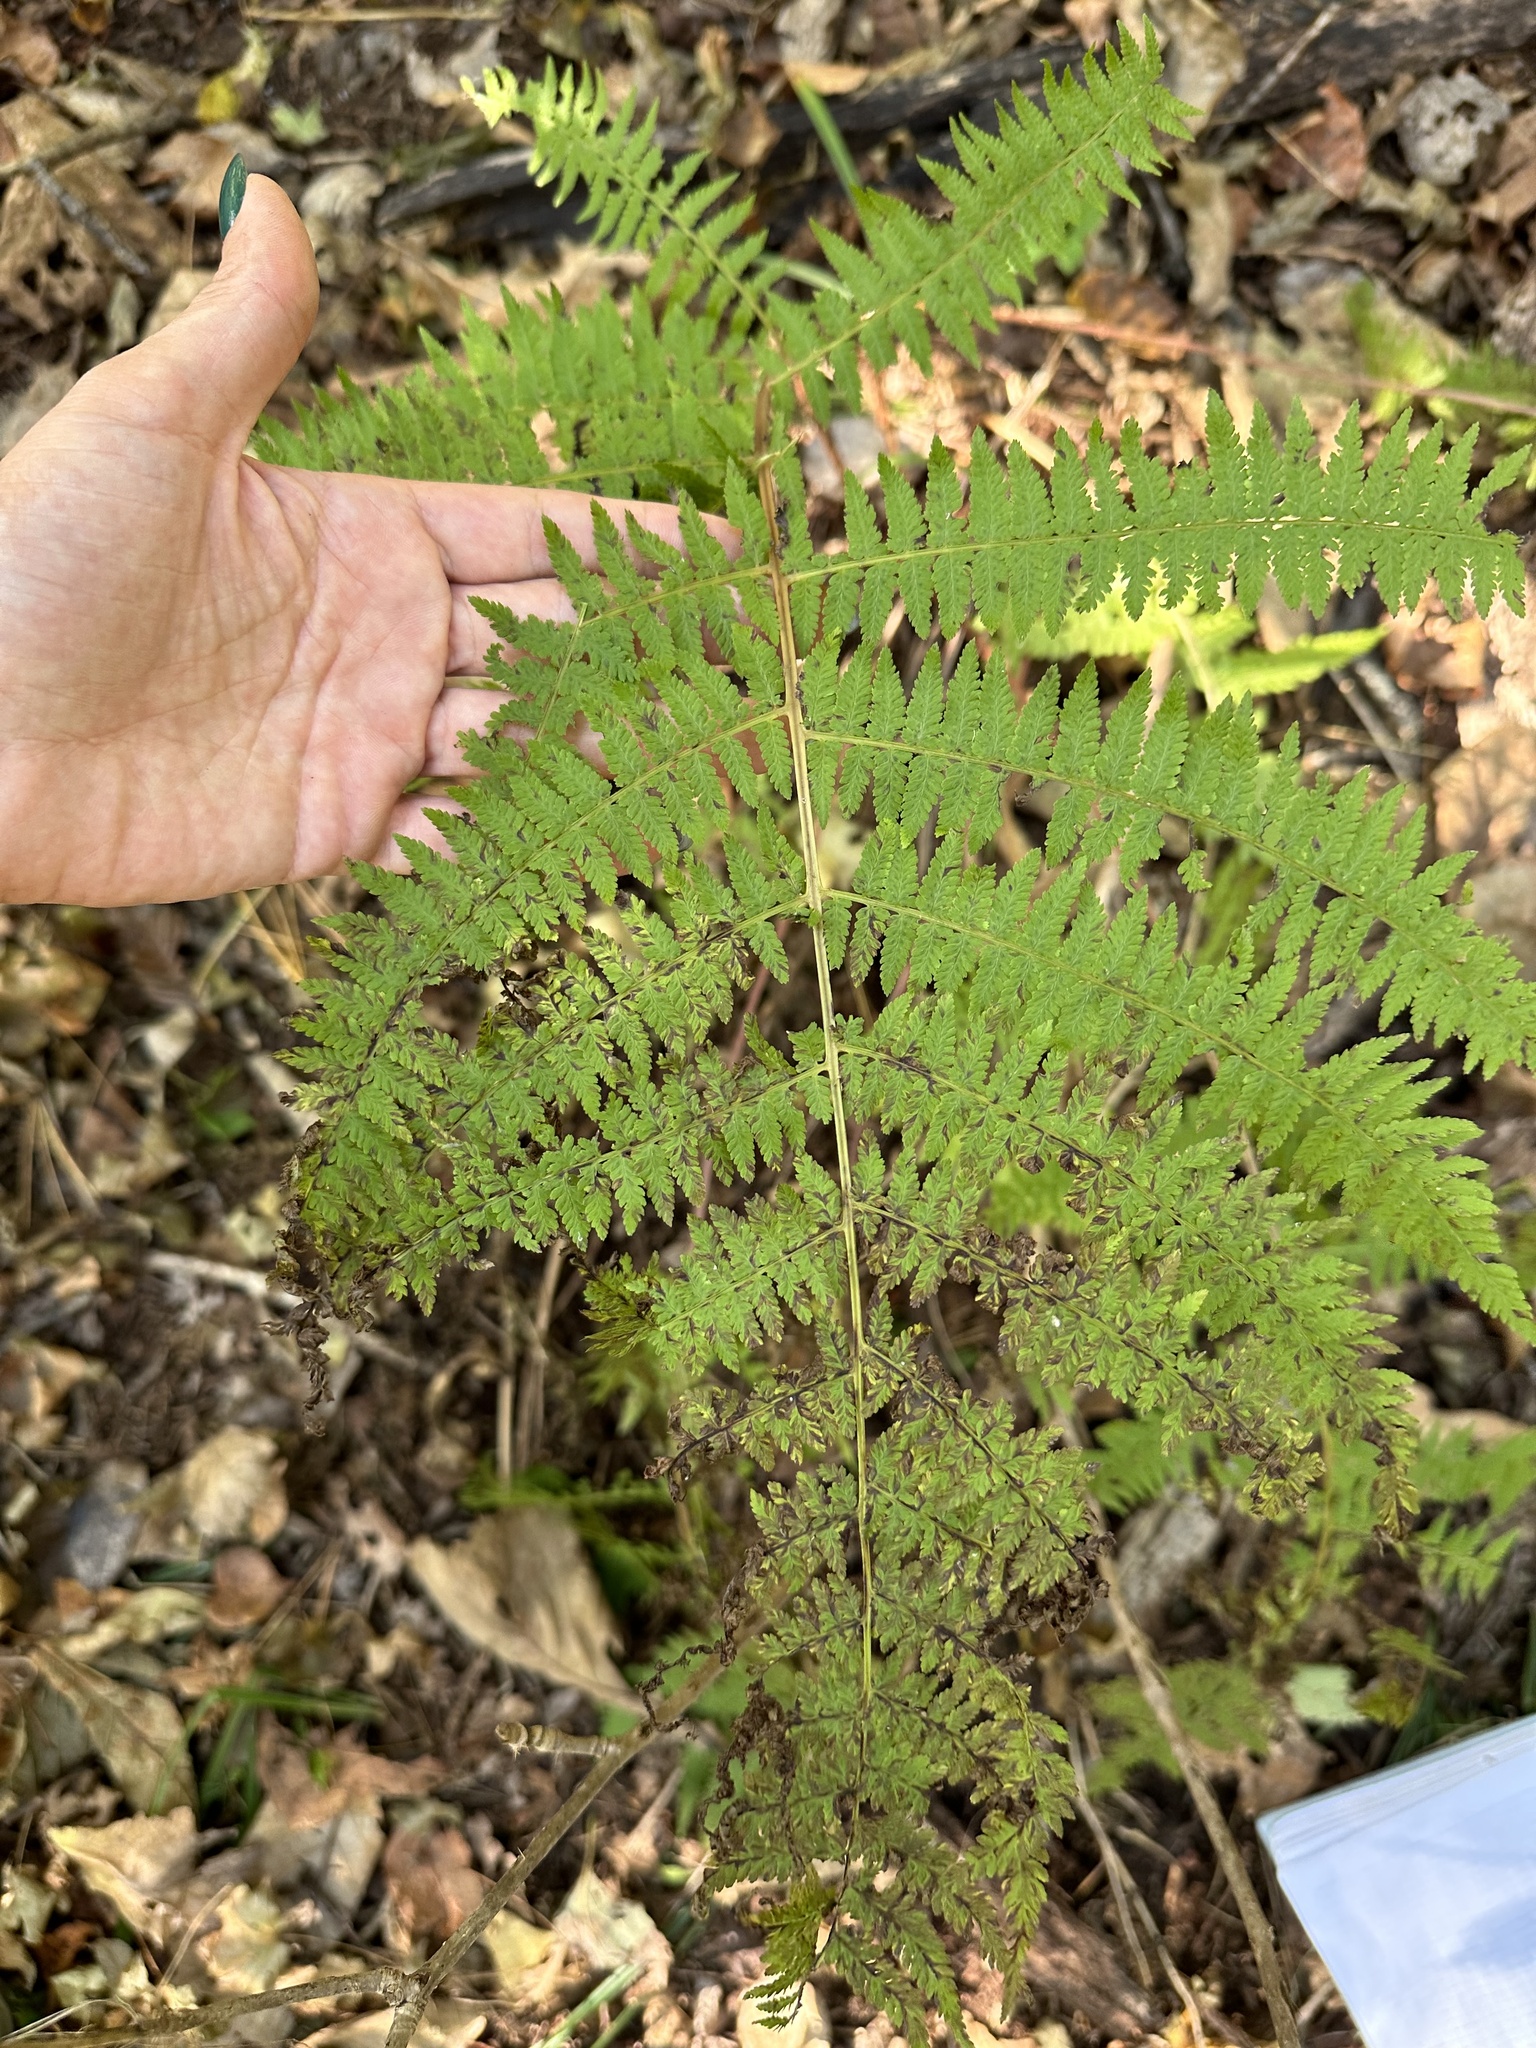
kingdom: Plantae
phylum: Tracheophyta
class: Polypodiopsida
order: Polypodiales
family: Athyriaceae
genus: Athyrium
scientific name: Athyrium filix-femina
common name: Lady fern
